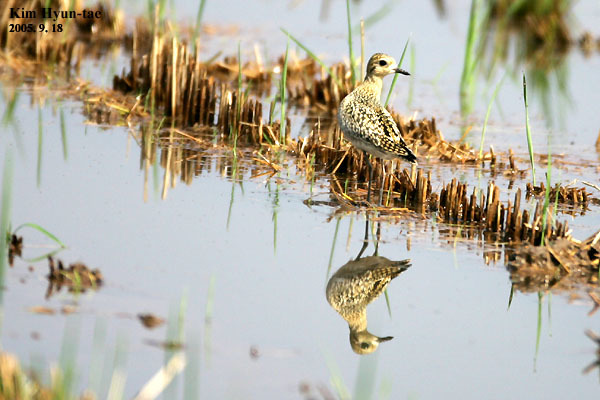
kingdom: Animalia
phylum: Chordata
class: Aves
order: Charadriiformes
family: Charadriidae
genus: Pluvialis
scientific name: Pluvialis fulva
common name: Pacific golden plover
